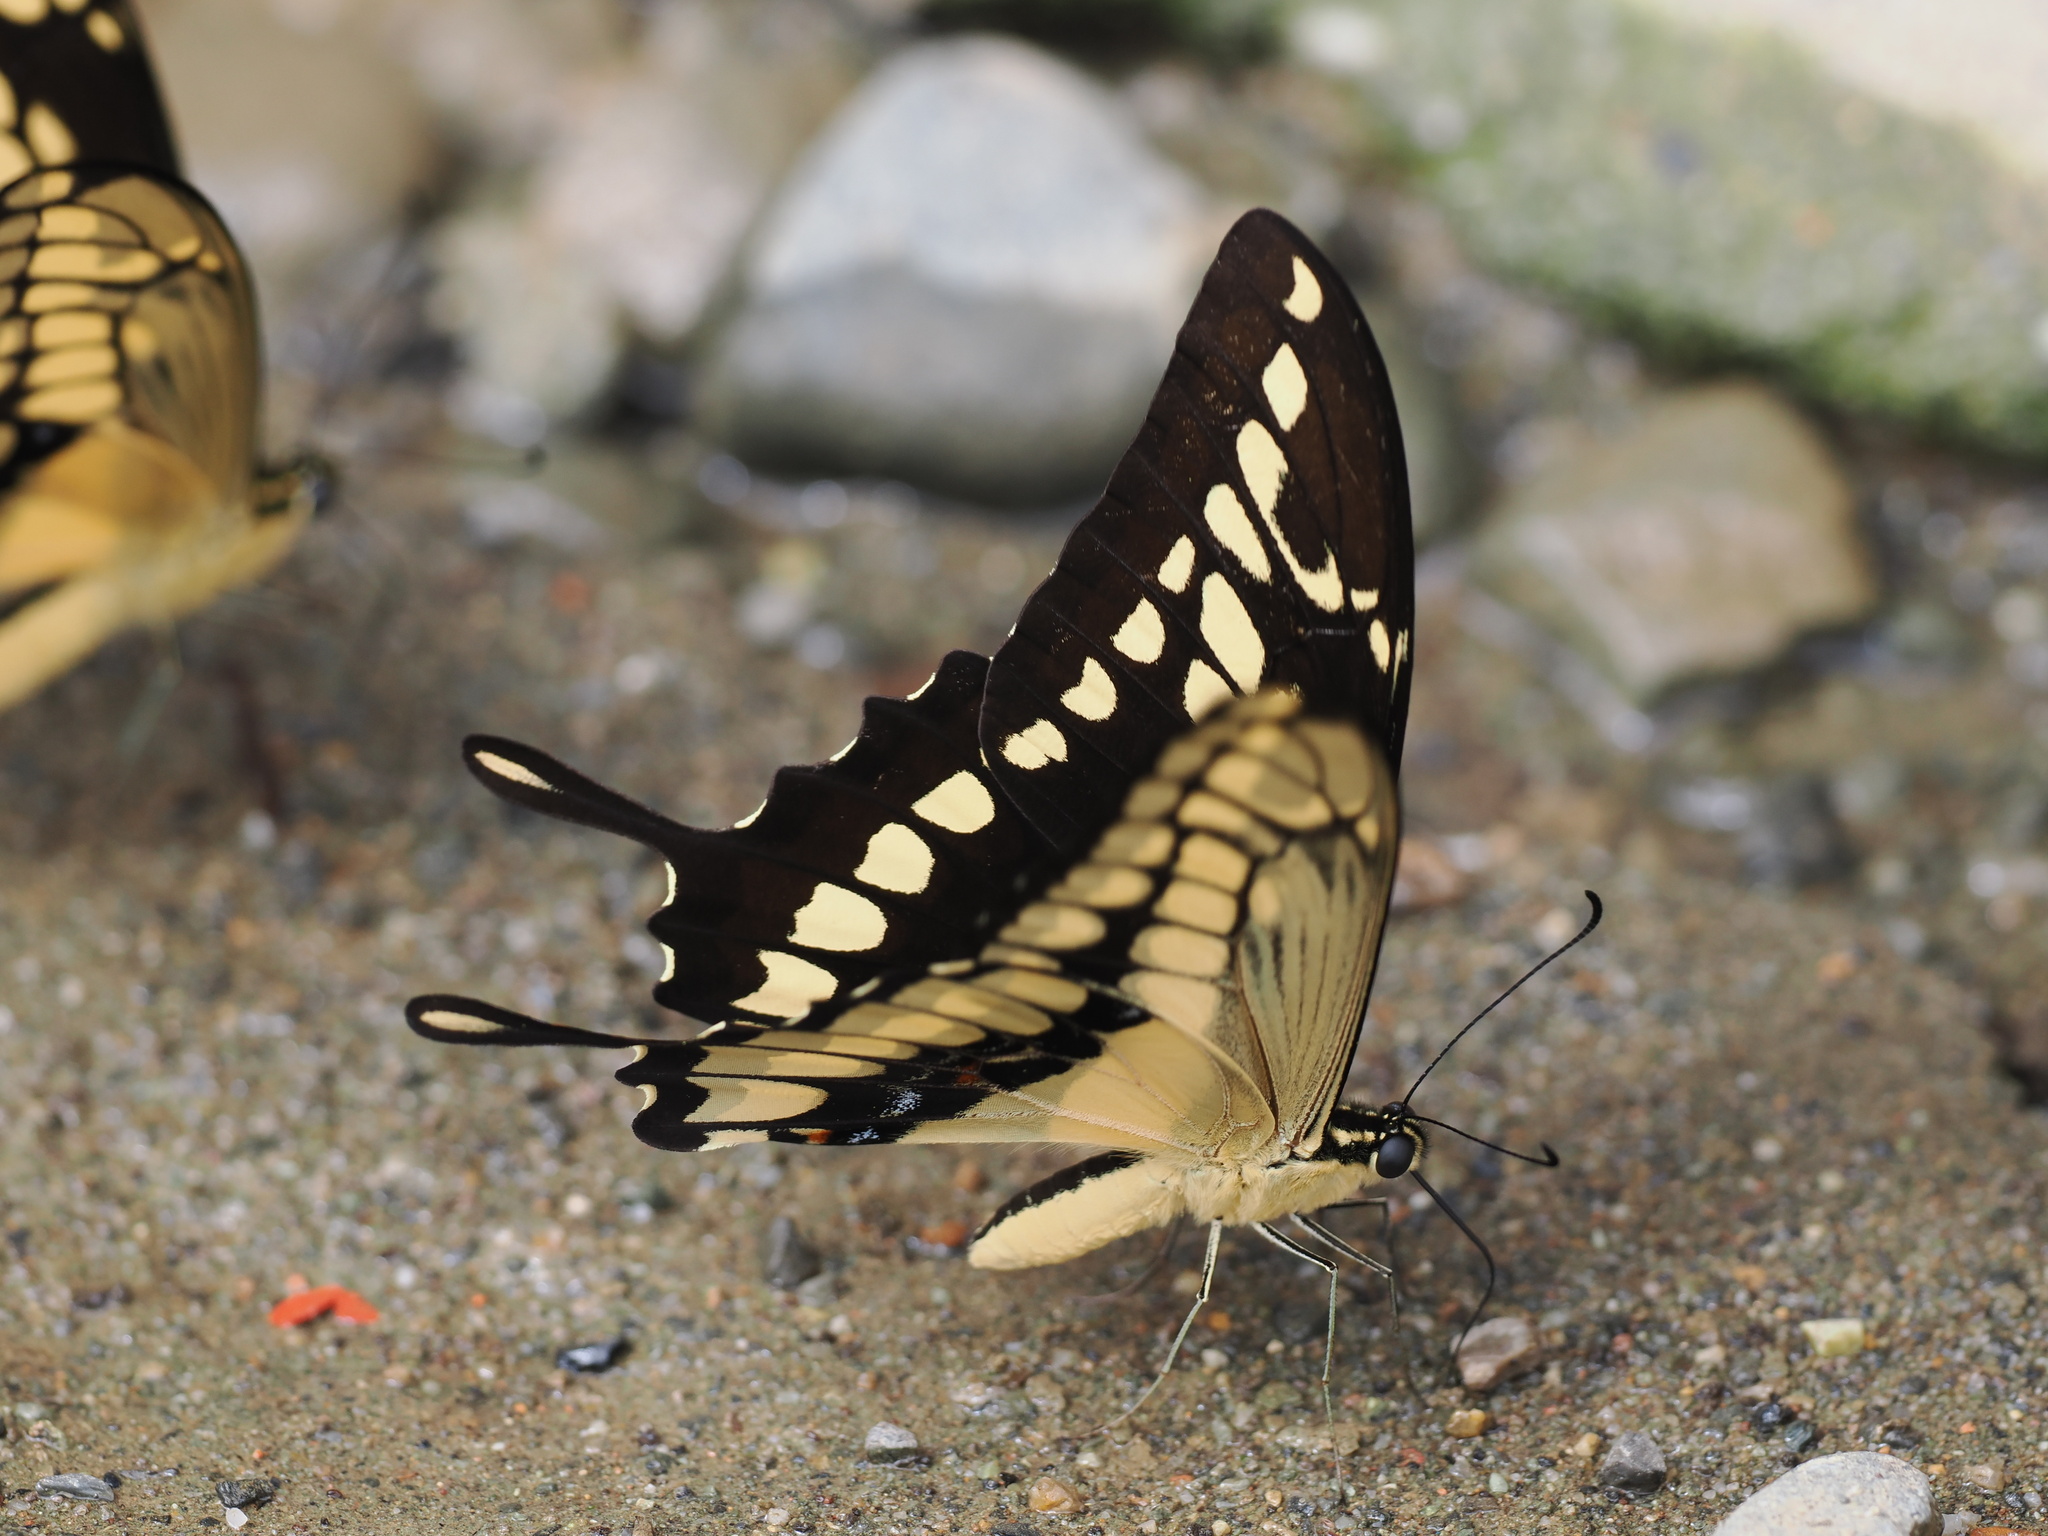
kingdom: Animalia
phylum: Arthropoda
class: Insecta
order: Lepidoptera
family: Papilionidae
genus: Papilio
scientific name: Papilio thoas
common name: King swallowtail
